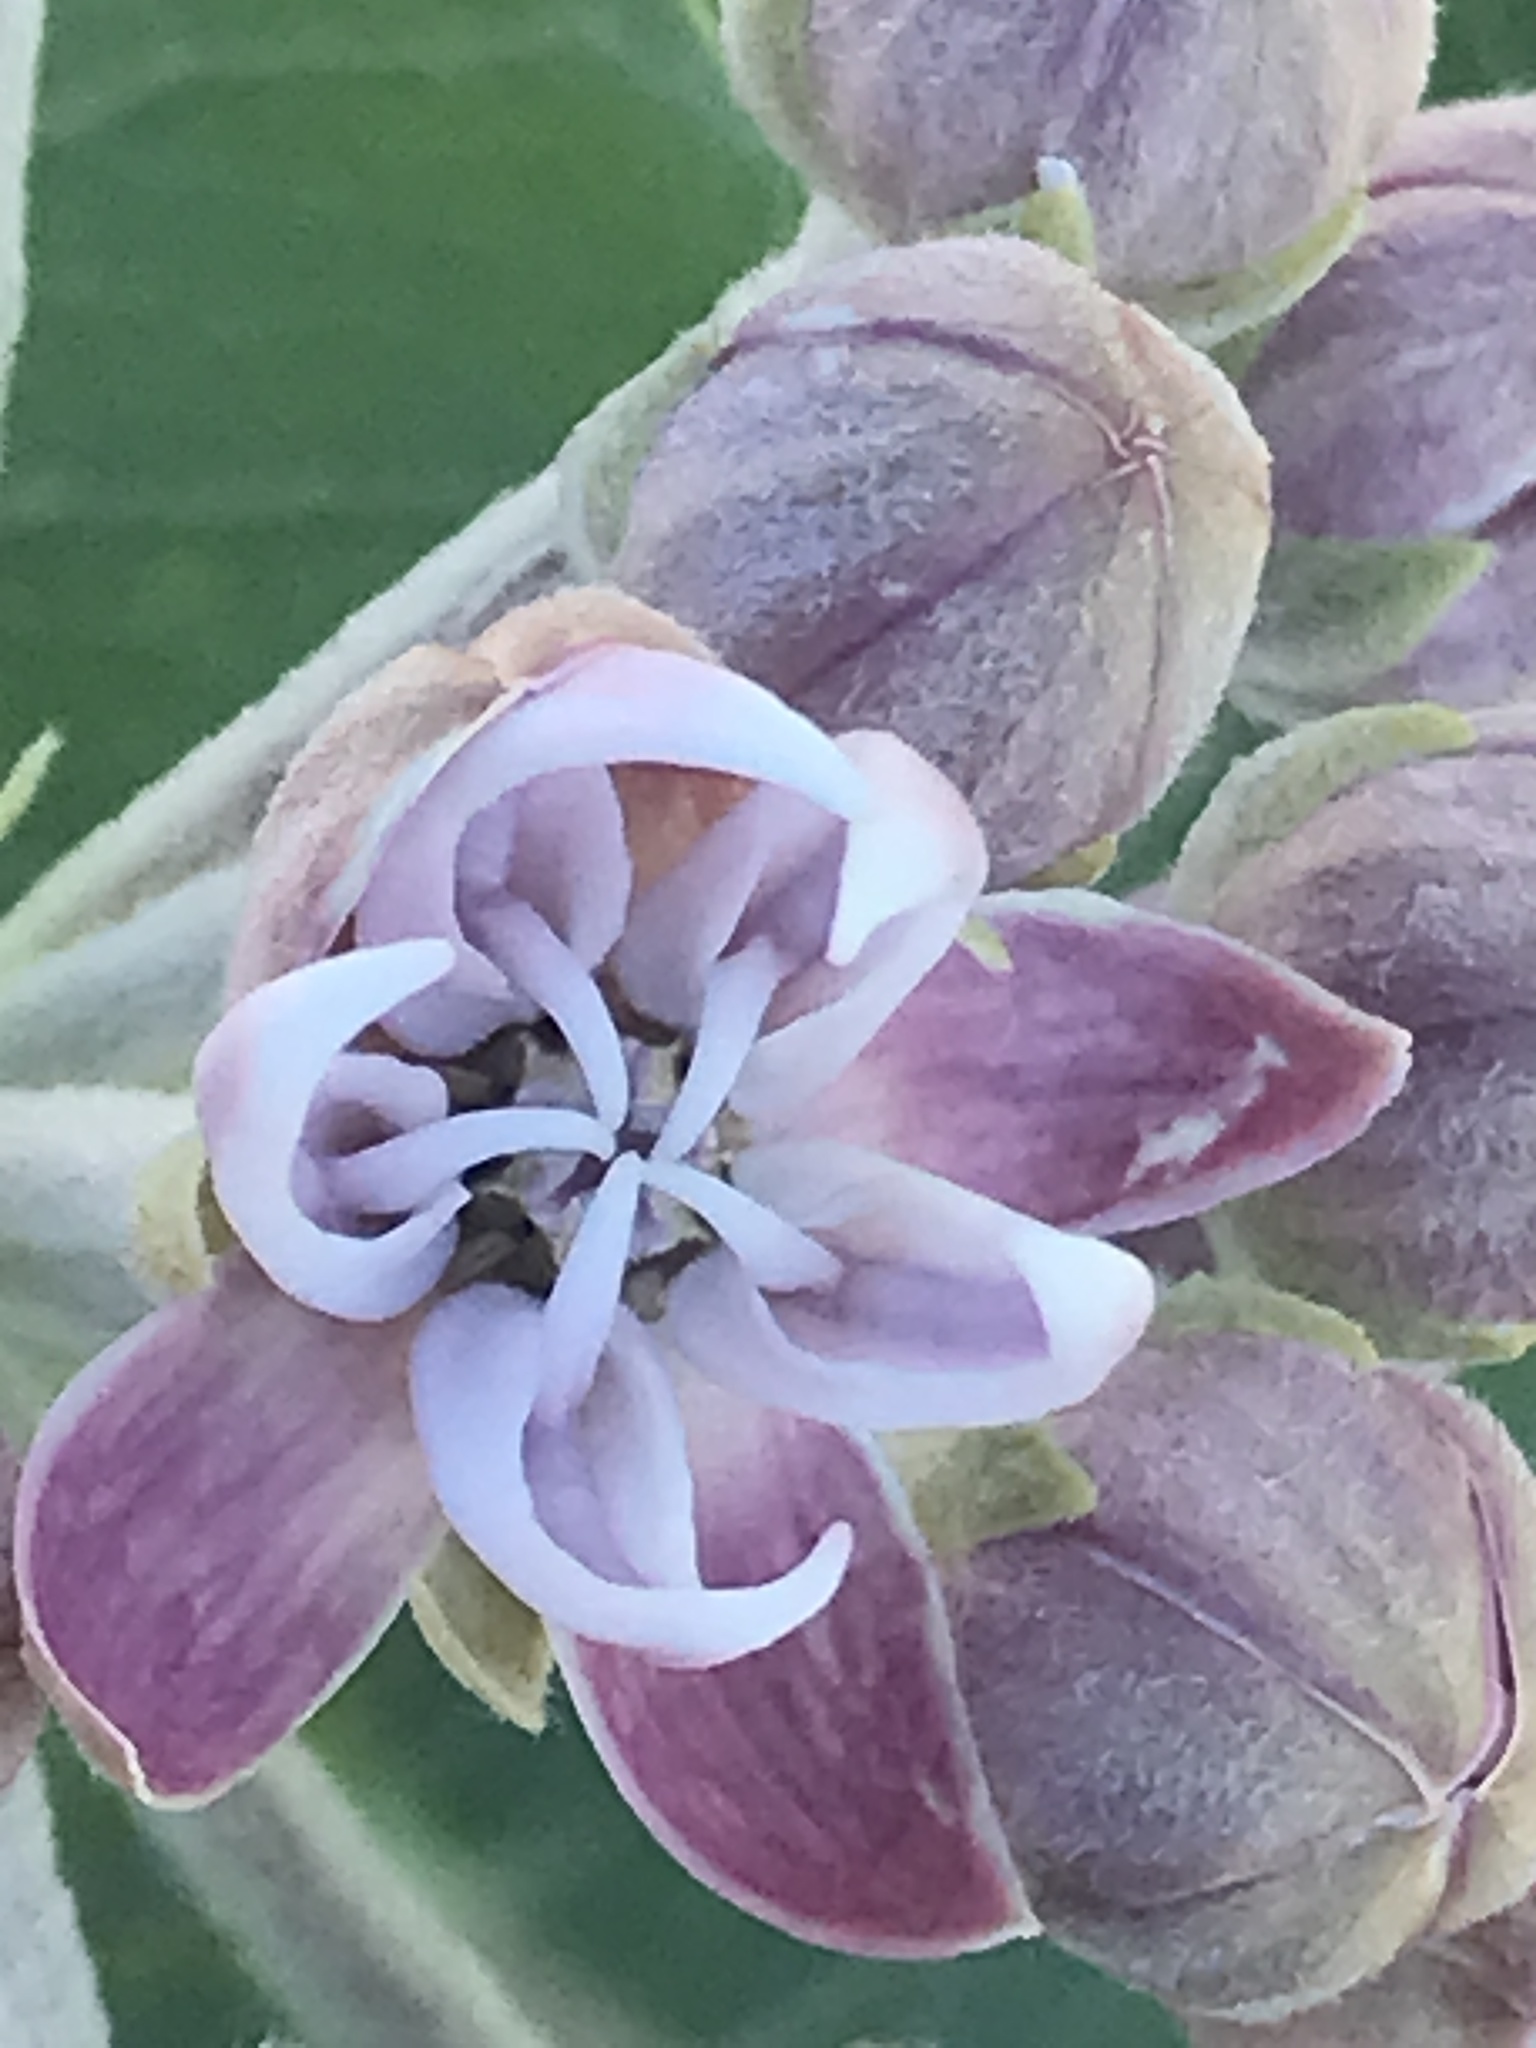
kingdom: Plantae
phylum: Tracheophyta
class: Magnoliopsida
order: Gentianales
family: Apocynaceae
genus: Asclepias
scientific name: Asclepias speciosa
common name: Showy milkweed
